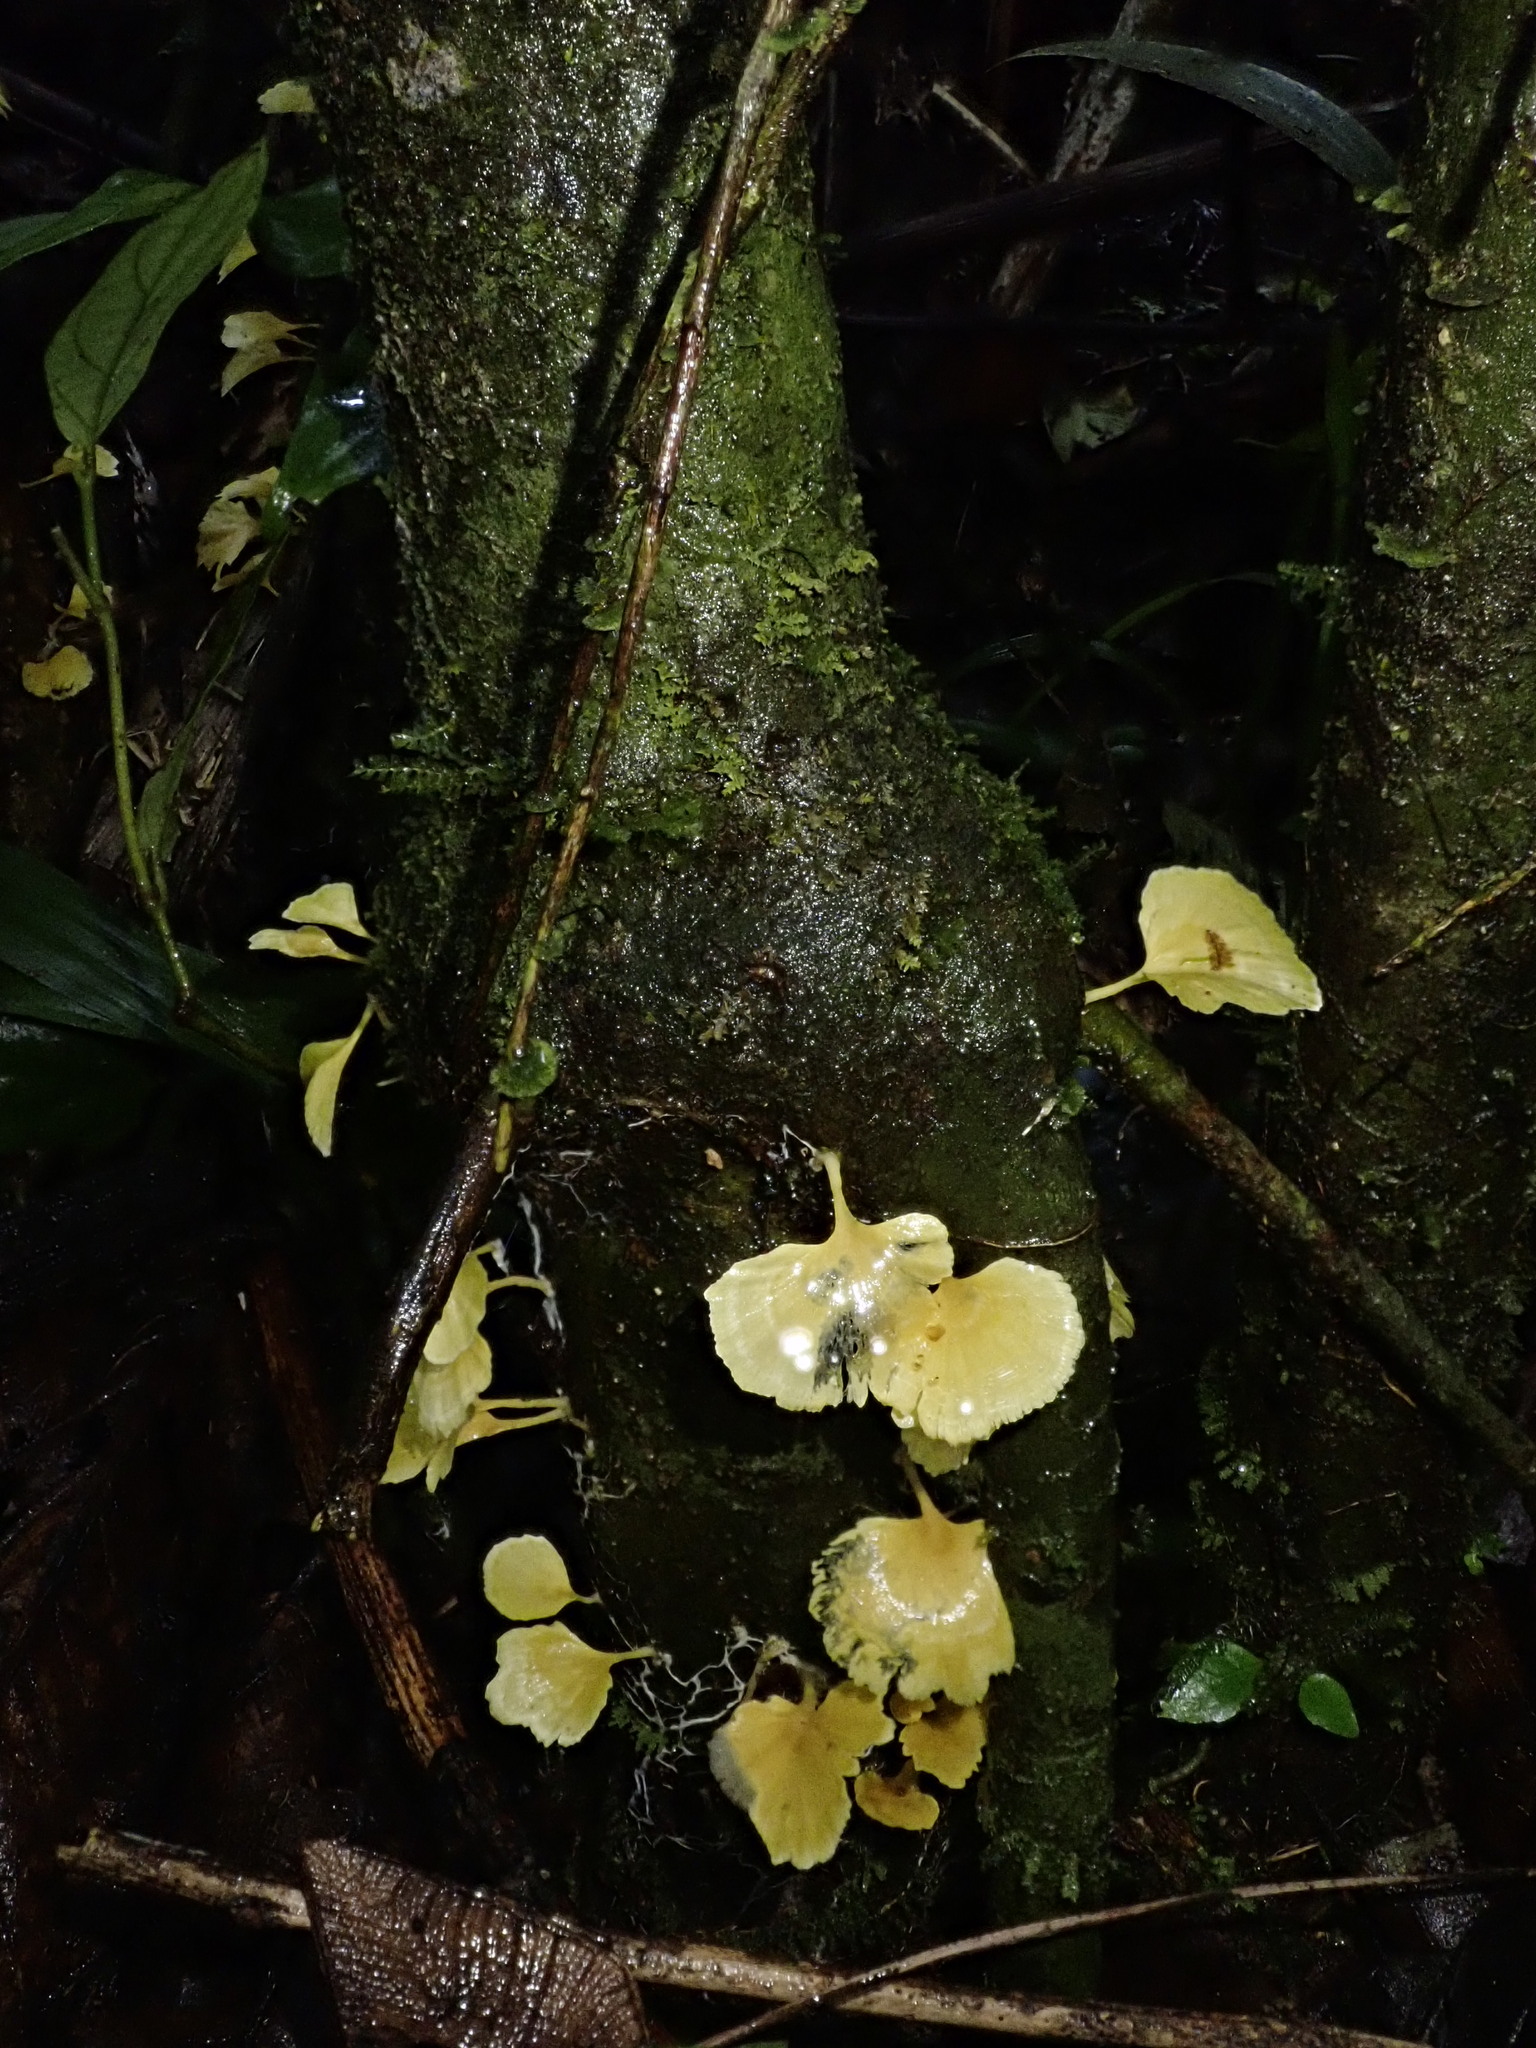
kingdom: Fungi
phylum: Basidiomycota
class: Agaricomycetes
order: Hymenochaetales
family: Rickenellaceae
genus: Cotylidia
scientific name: Cotylidia aurantiaca
